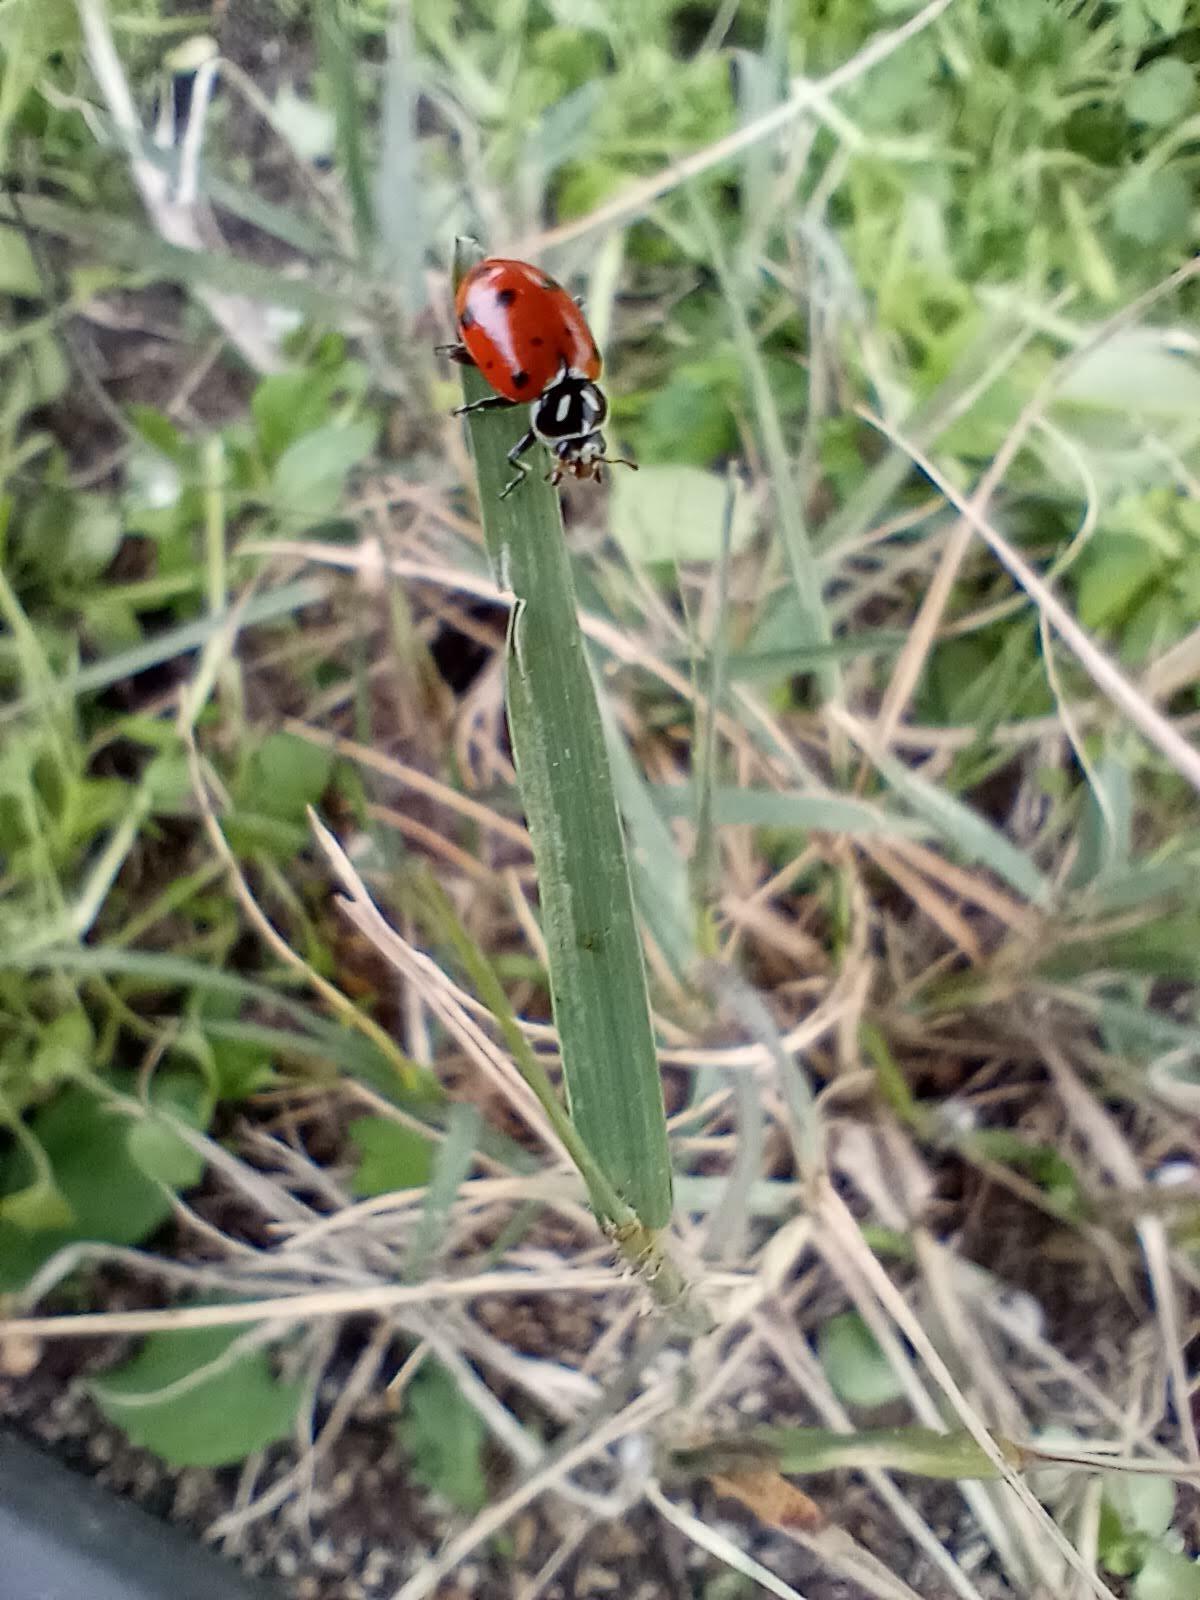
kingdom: Animalia
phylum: Arthropoda
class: Insecta
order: Coleoptera
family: Coccinellidae
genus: Hippodamia
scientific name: Hippodamia convergens
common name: Convergent lady beetle
